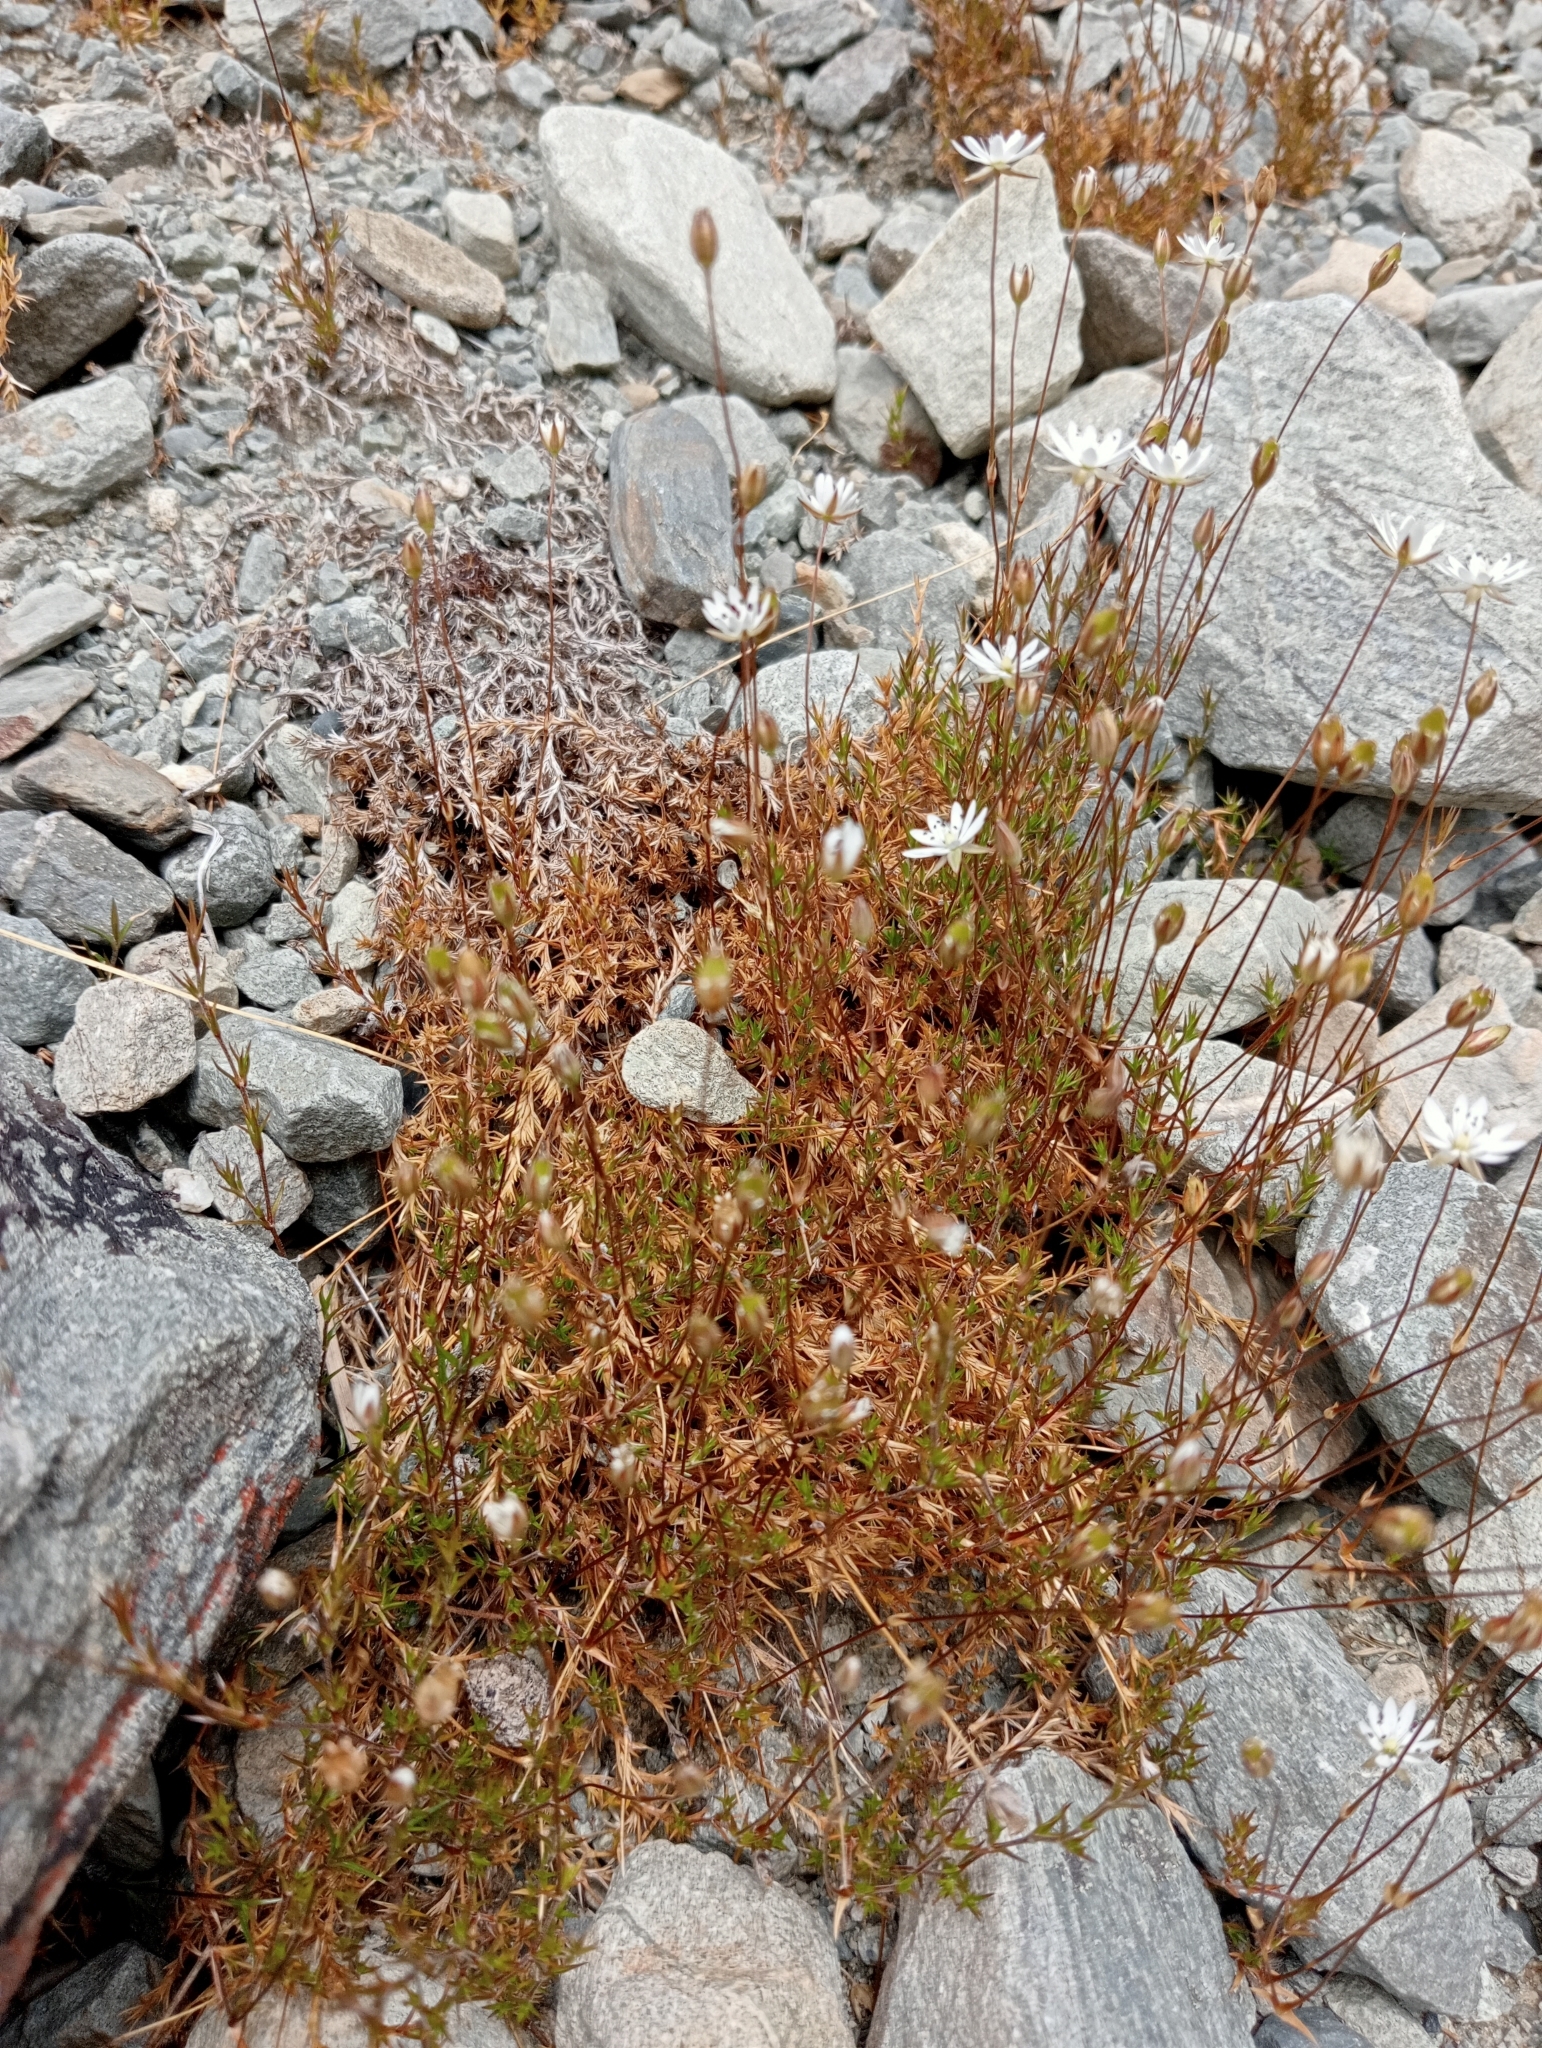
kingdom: Plantae
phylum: Tracheophyta
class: Magnoliopsida
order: Caryophyllales
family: Caryophyllaceae
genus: Stellaria
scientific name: Stellaria gracilenta
